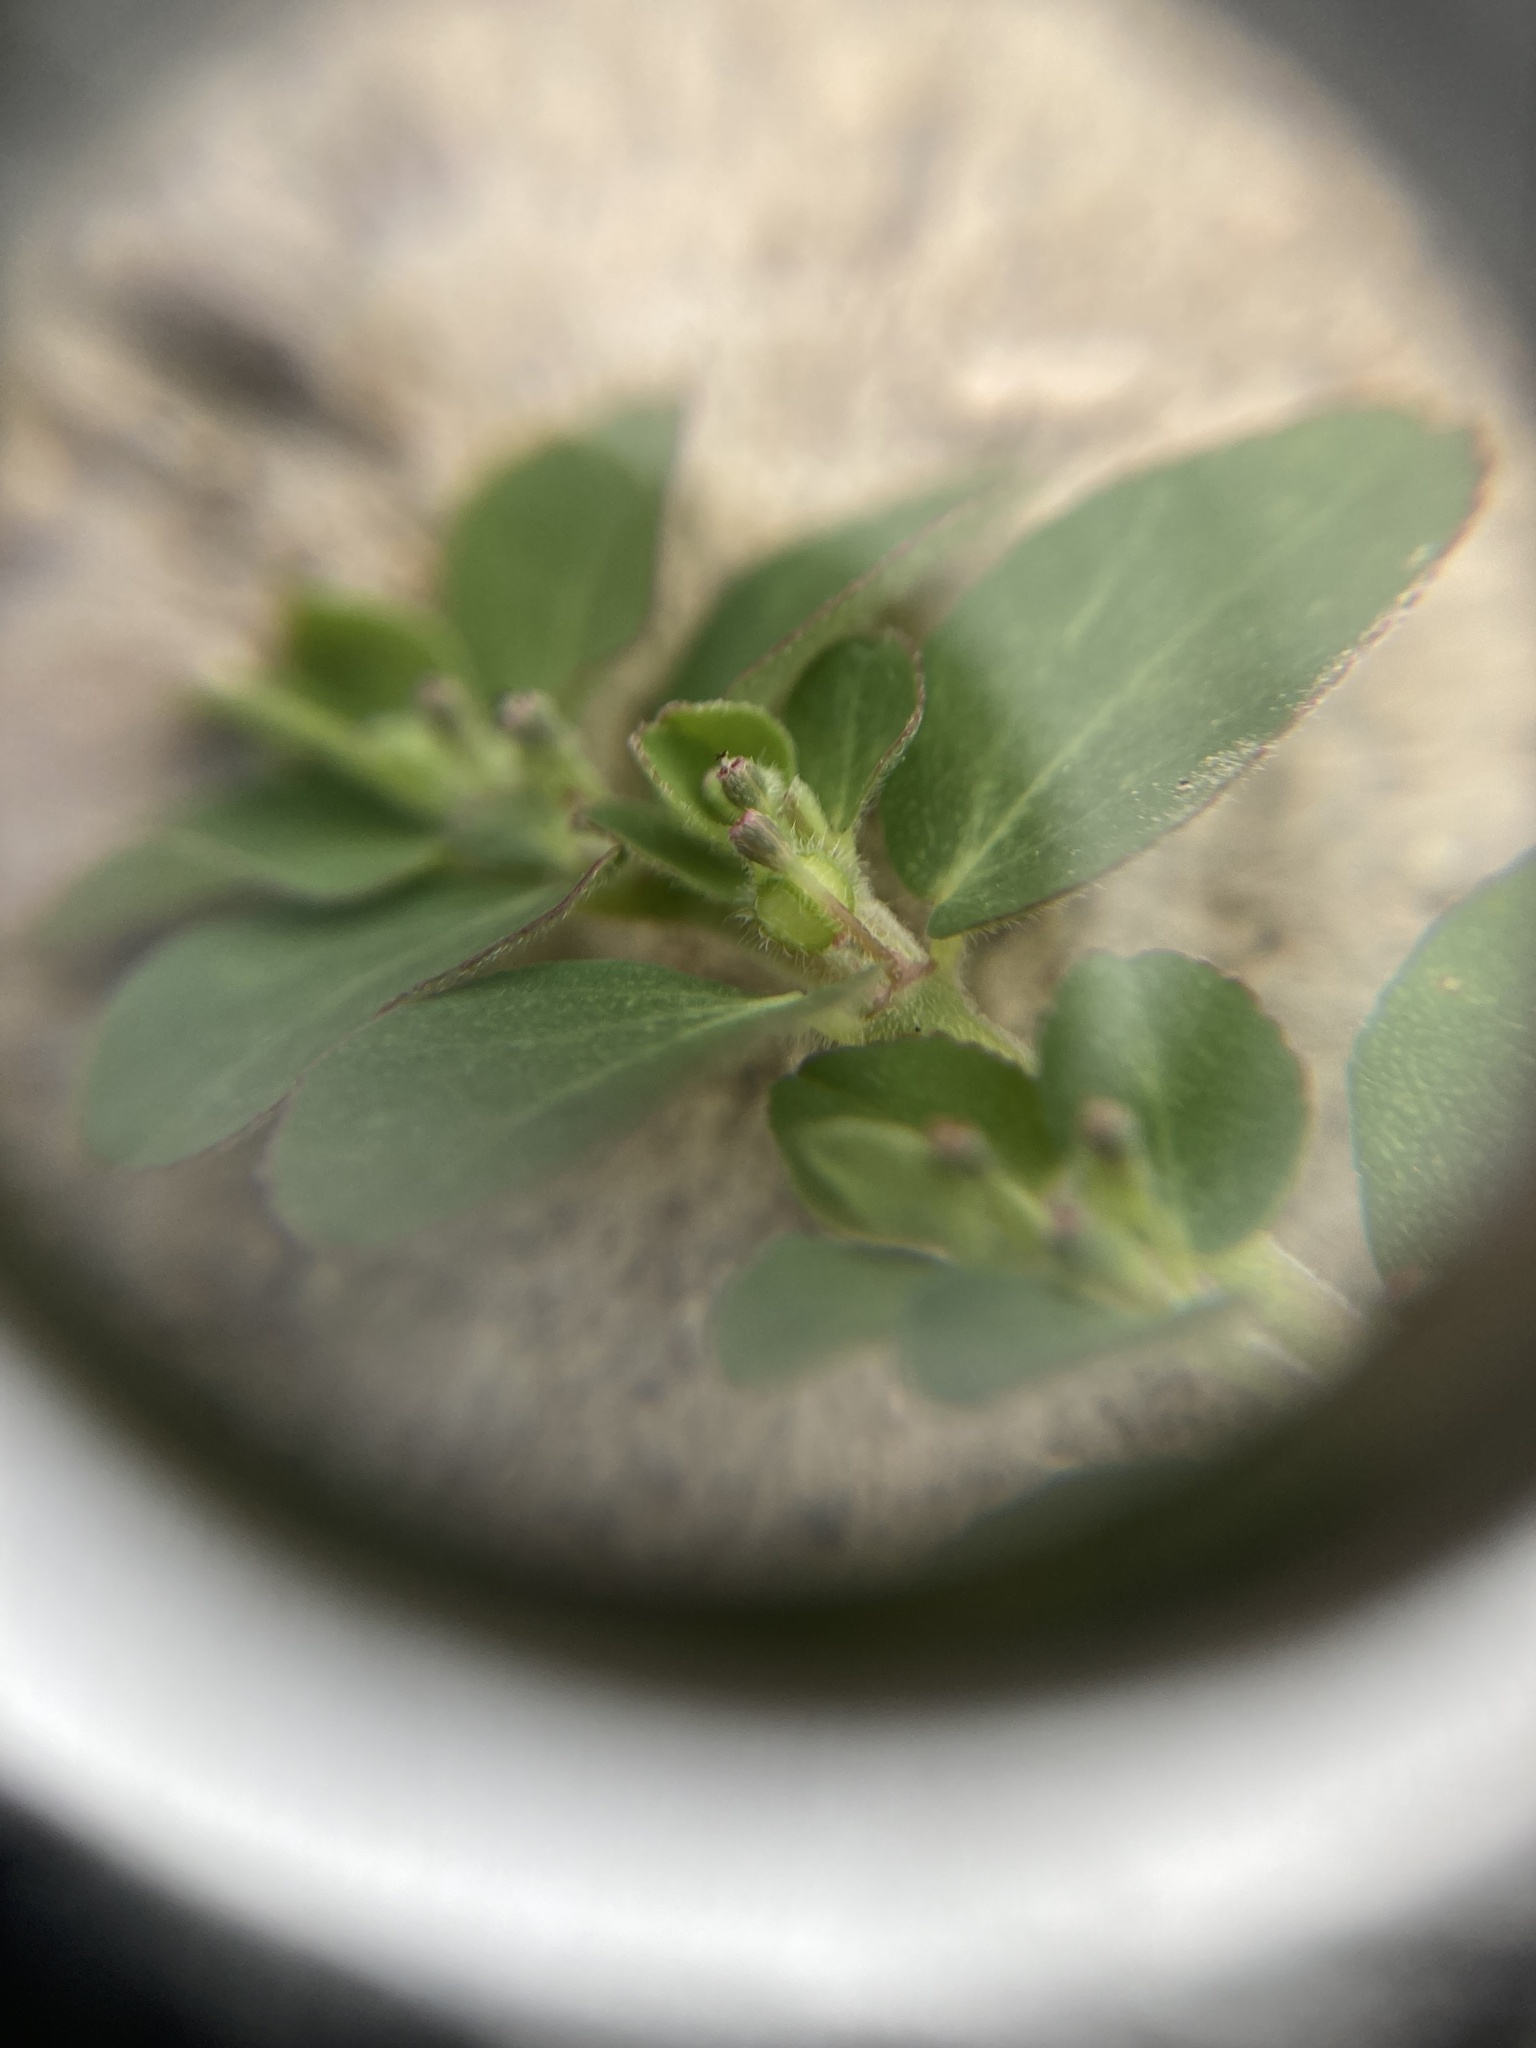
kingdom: Plantae
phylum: Tracheophyta
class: Magnoliopsida
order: Malpighiales
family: Euphorbiaceae
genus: Euphorbia
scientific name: Euphorbia prostrata
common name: Prostrate sandmat
